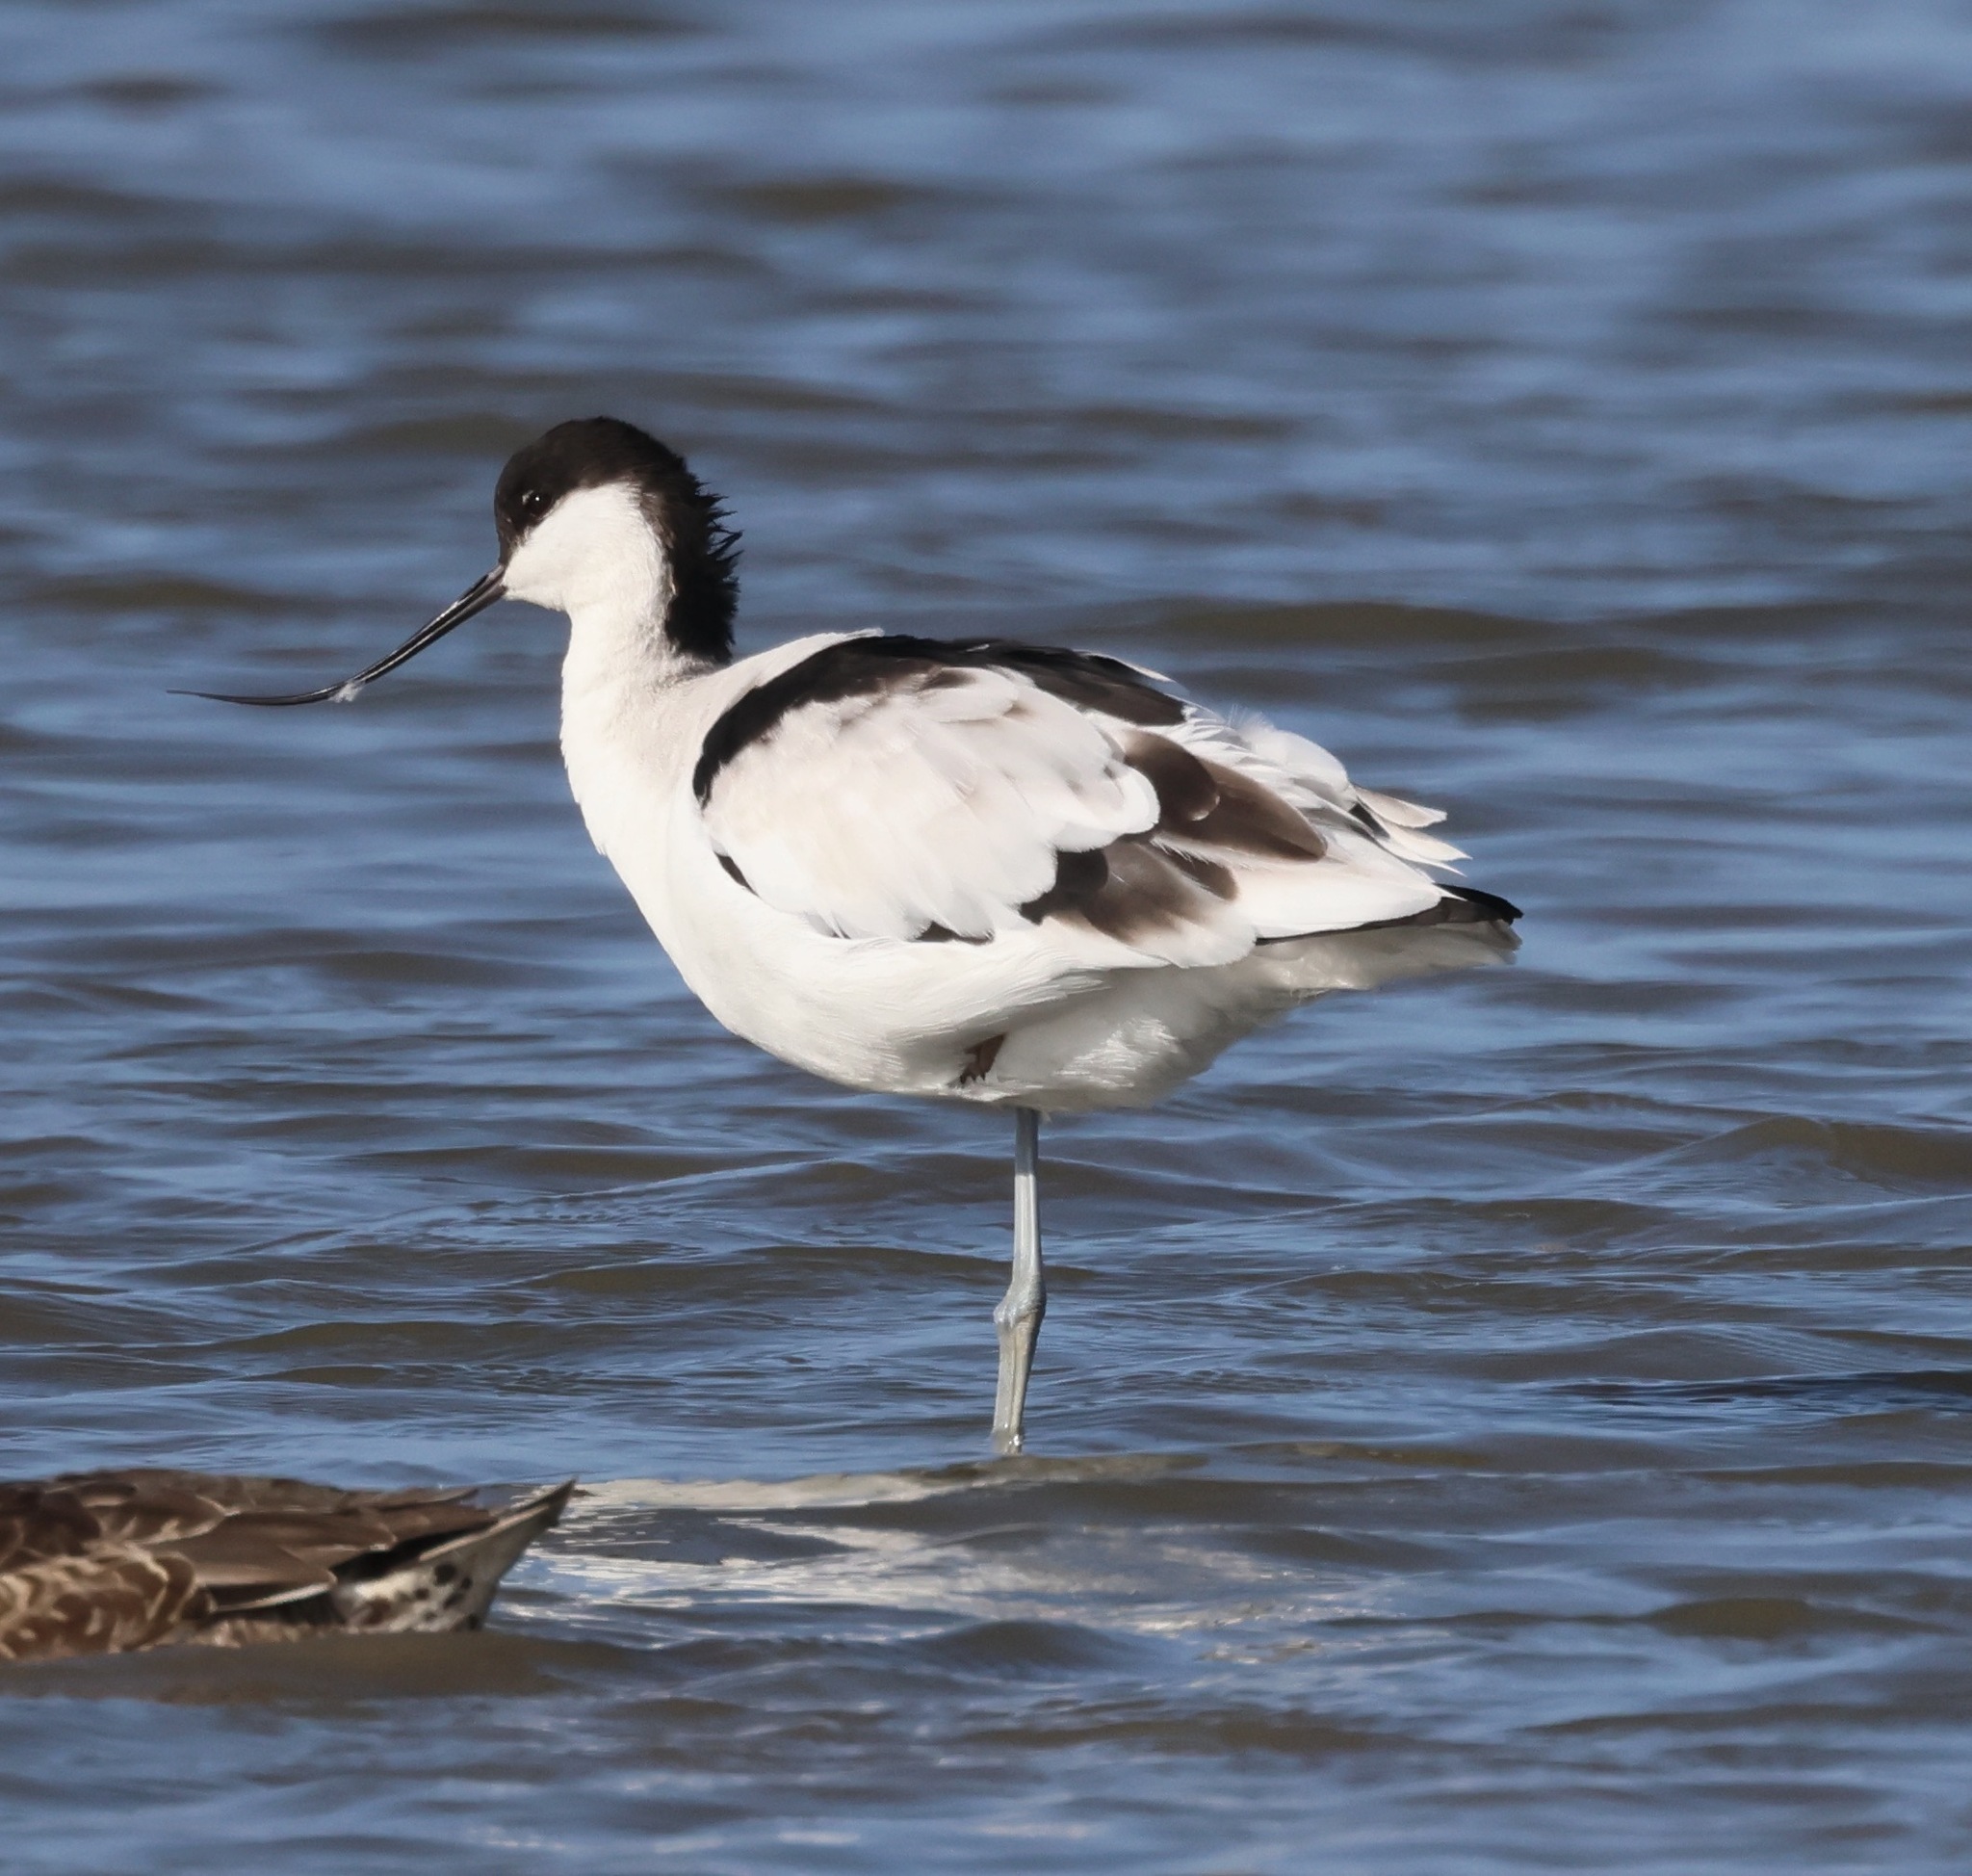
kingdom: Animalia
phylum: Chordata
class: Aves
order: Charadriiformes
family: Recurvirostridae
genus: Recurvirostra
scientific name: Recurvirostra avosetta
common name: Pied avocet
